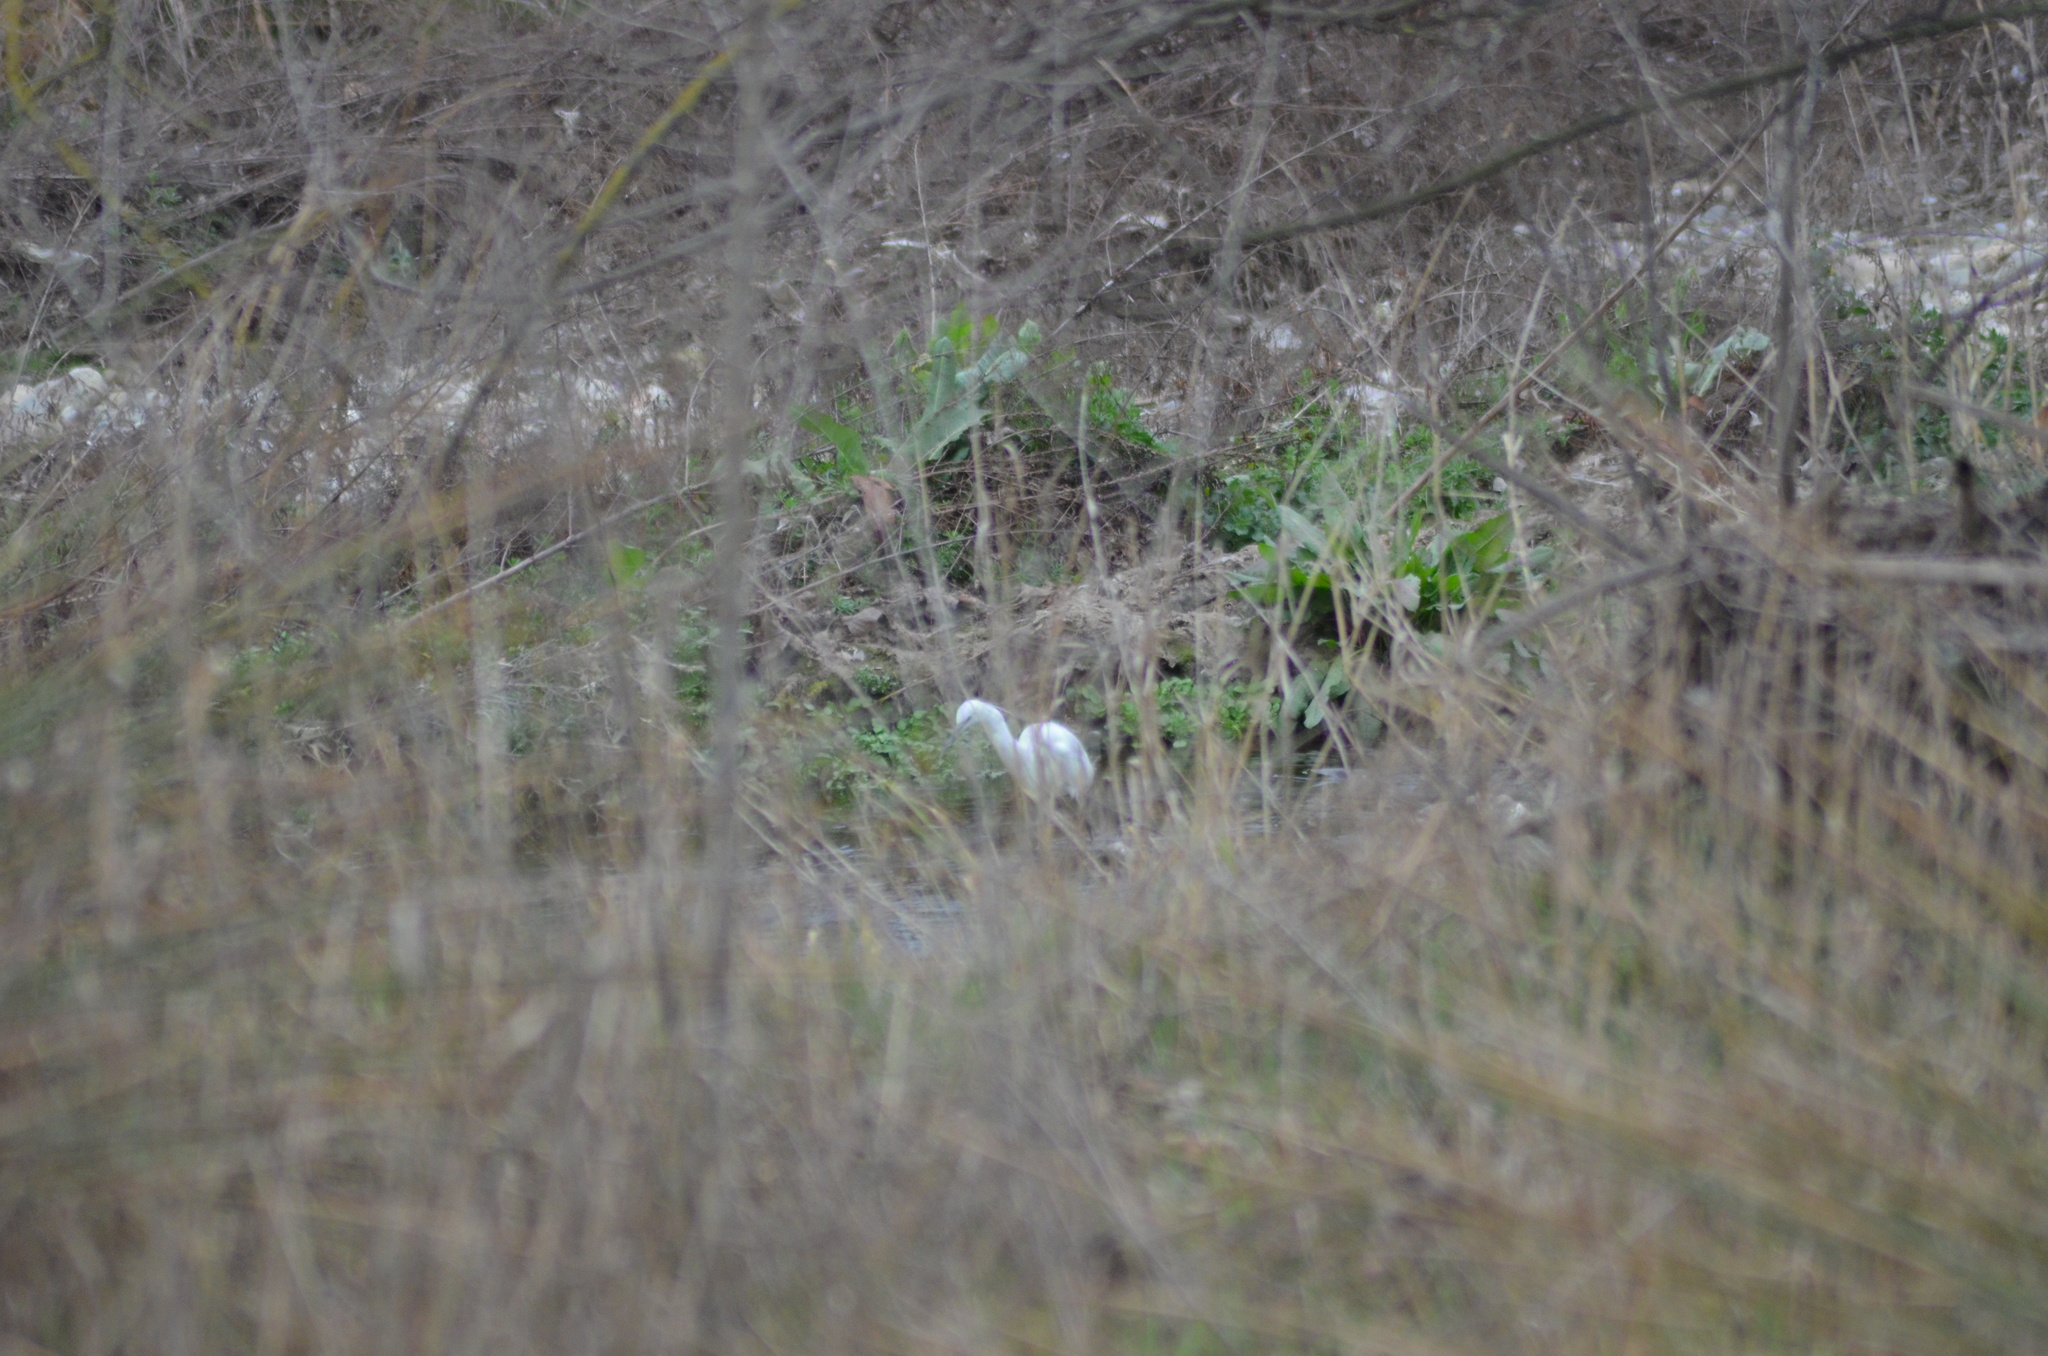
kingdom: Animalia
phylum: Chordata
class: Aves
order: Pelecaniformes
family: Ardeidae
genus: Egretta
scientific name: Egretta garzetta
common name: Little egret
